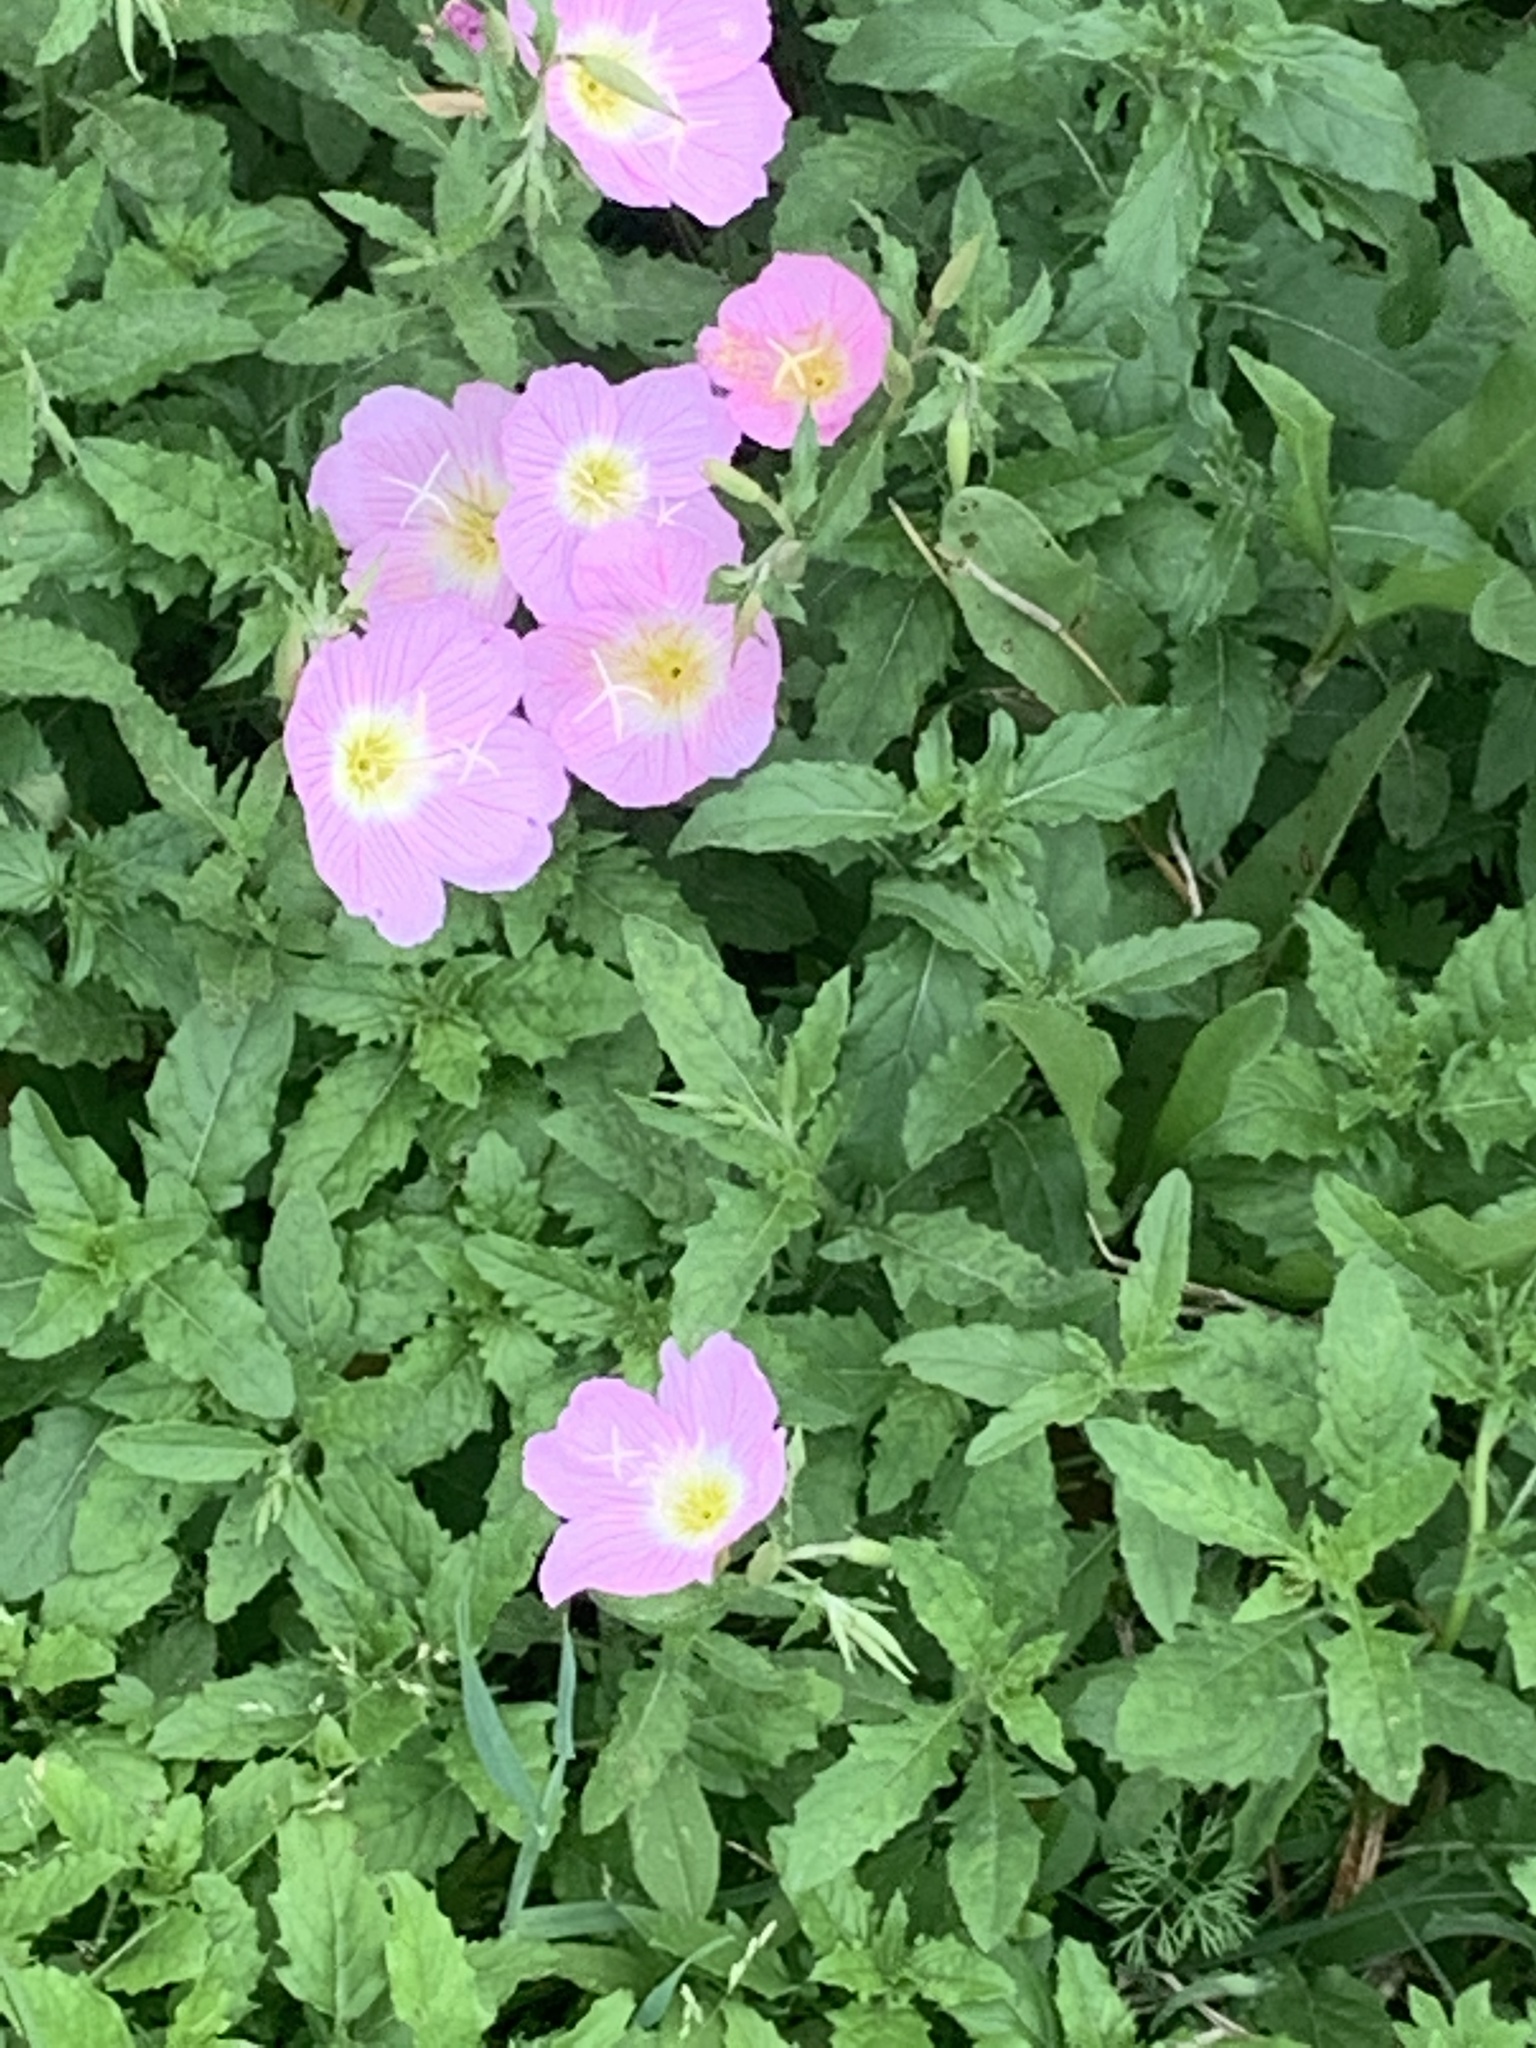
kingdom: Plantae
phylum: Tracheophyta
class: Magnoliopsida
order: Myrtales
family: Onagraceae
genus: Oenothera
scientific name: Oenothera speciosa
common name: White evening-primrose
